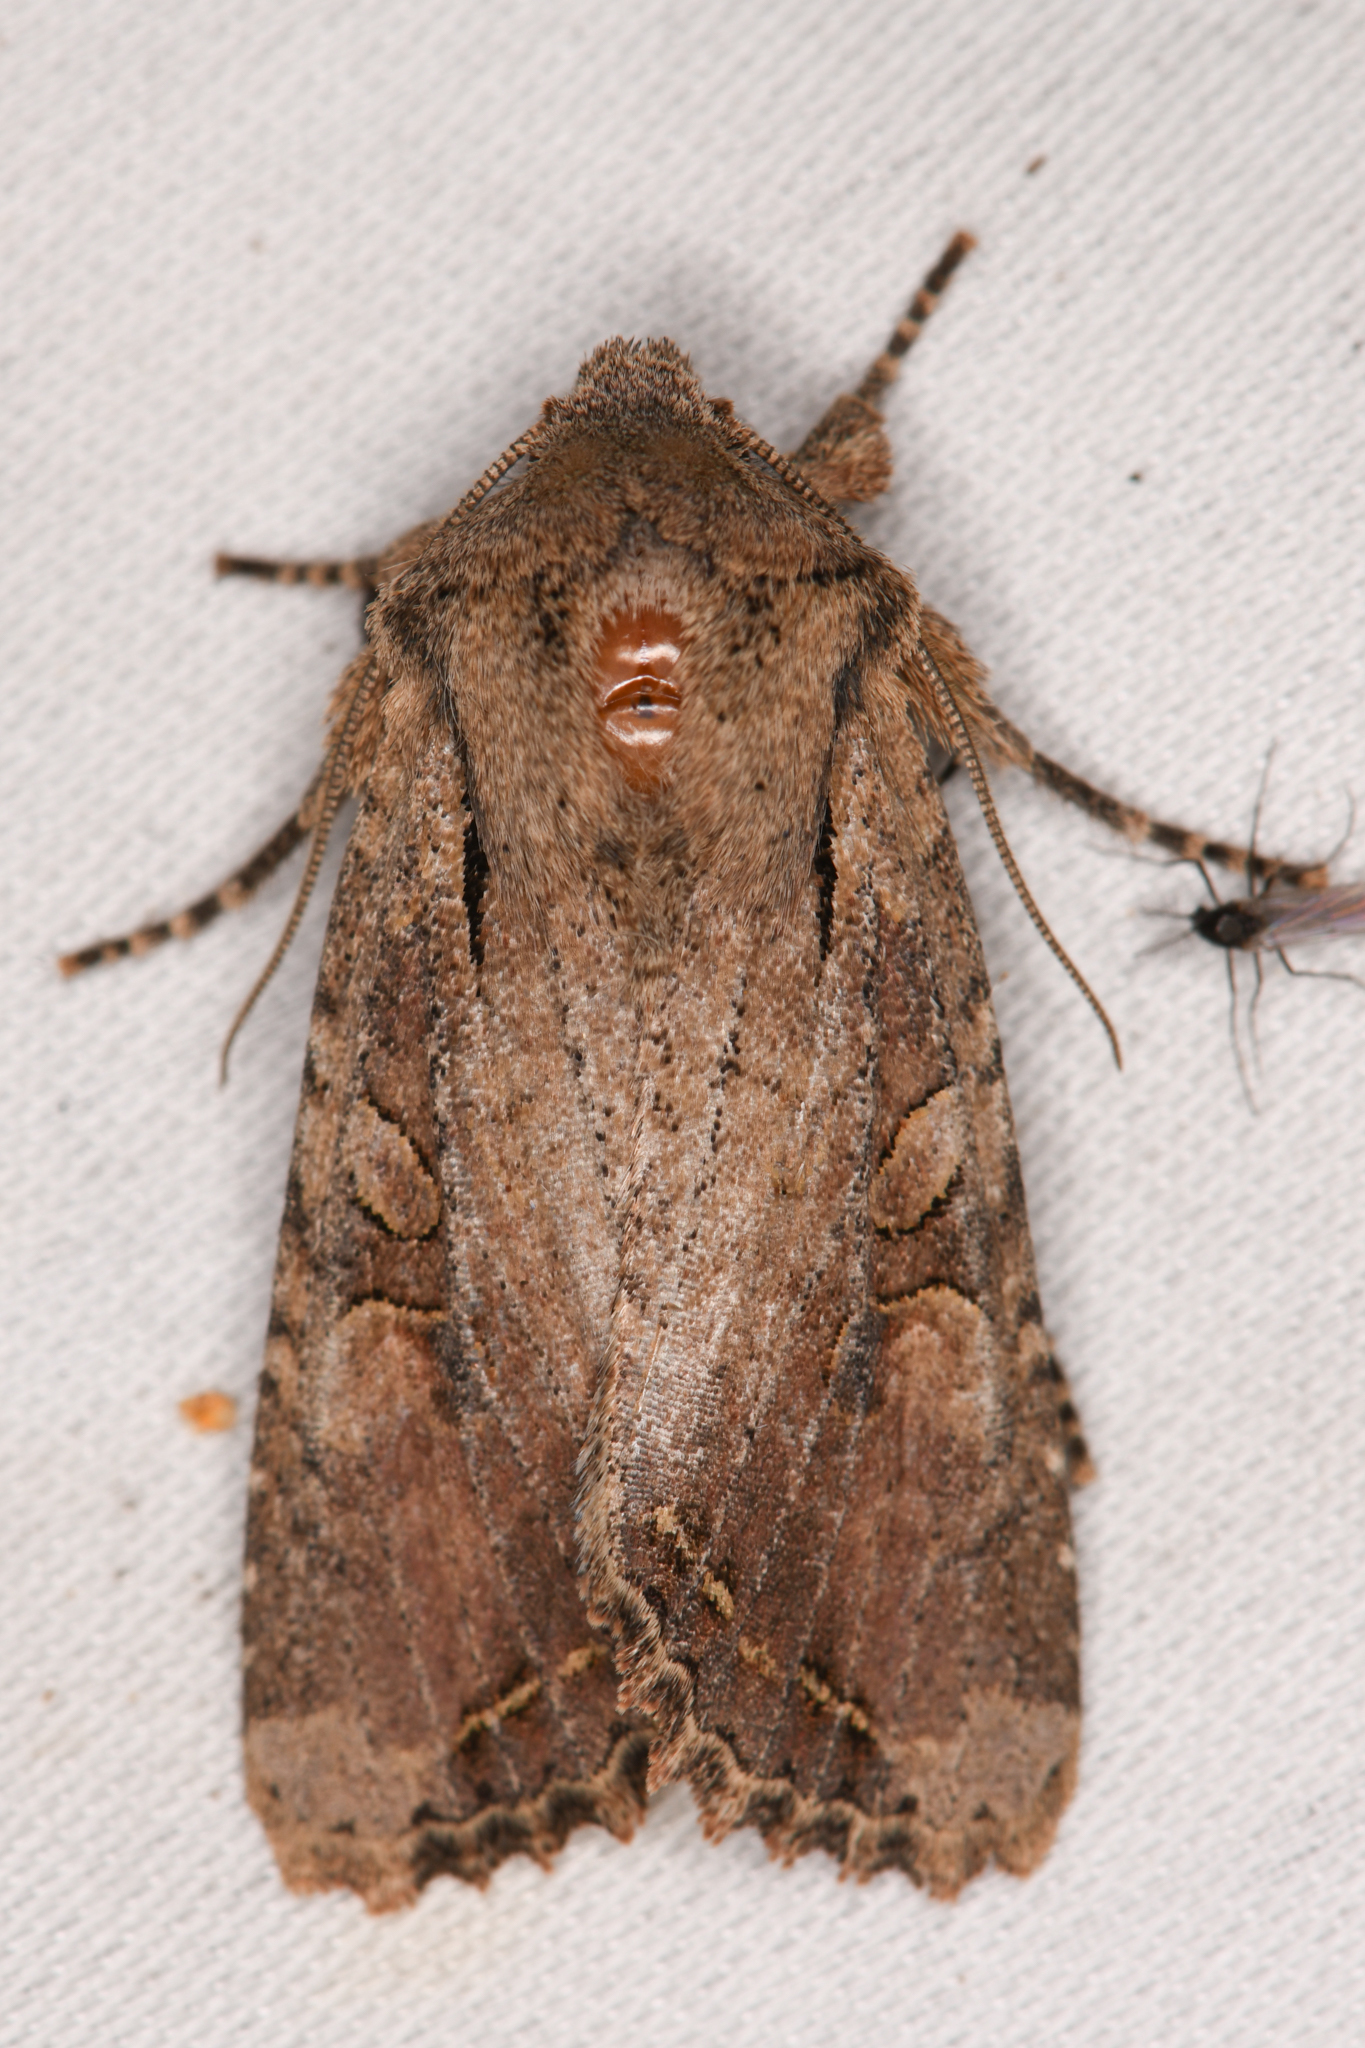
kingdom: Animalia
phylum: Arthropoda
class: Insecta
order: Lepidoptera
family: Noctuidae
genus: Egira
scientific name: Egira rubrica
